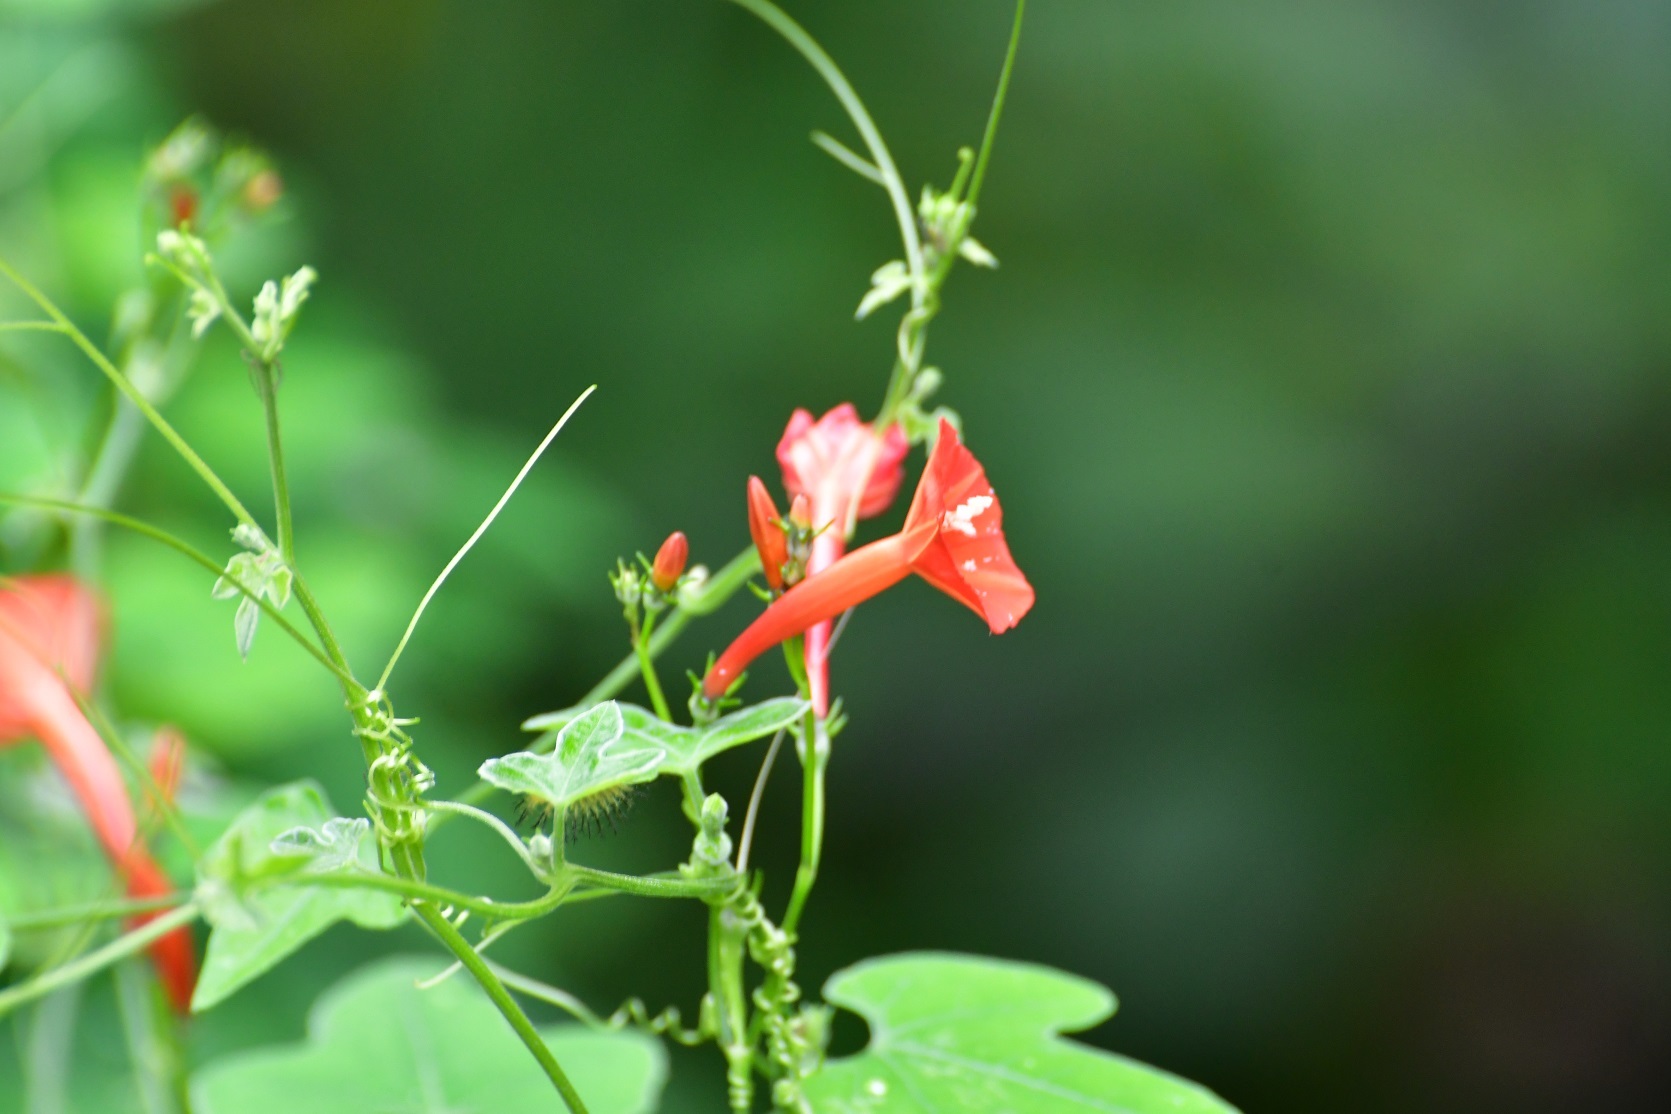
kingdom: Plantae
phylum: Tracheophyta
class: Magnoliopsida
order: Solanales
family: Convolvulaceae
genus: Ipomoea
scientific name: Ipomoea hederifolia
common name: Ivy-leaf morning-glory
